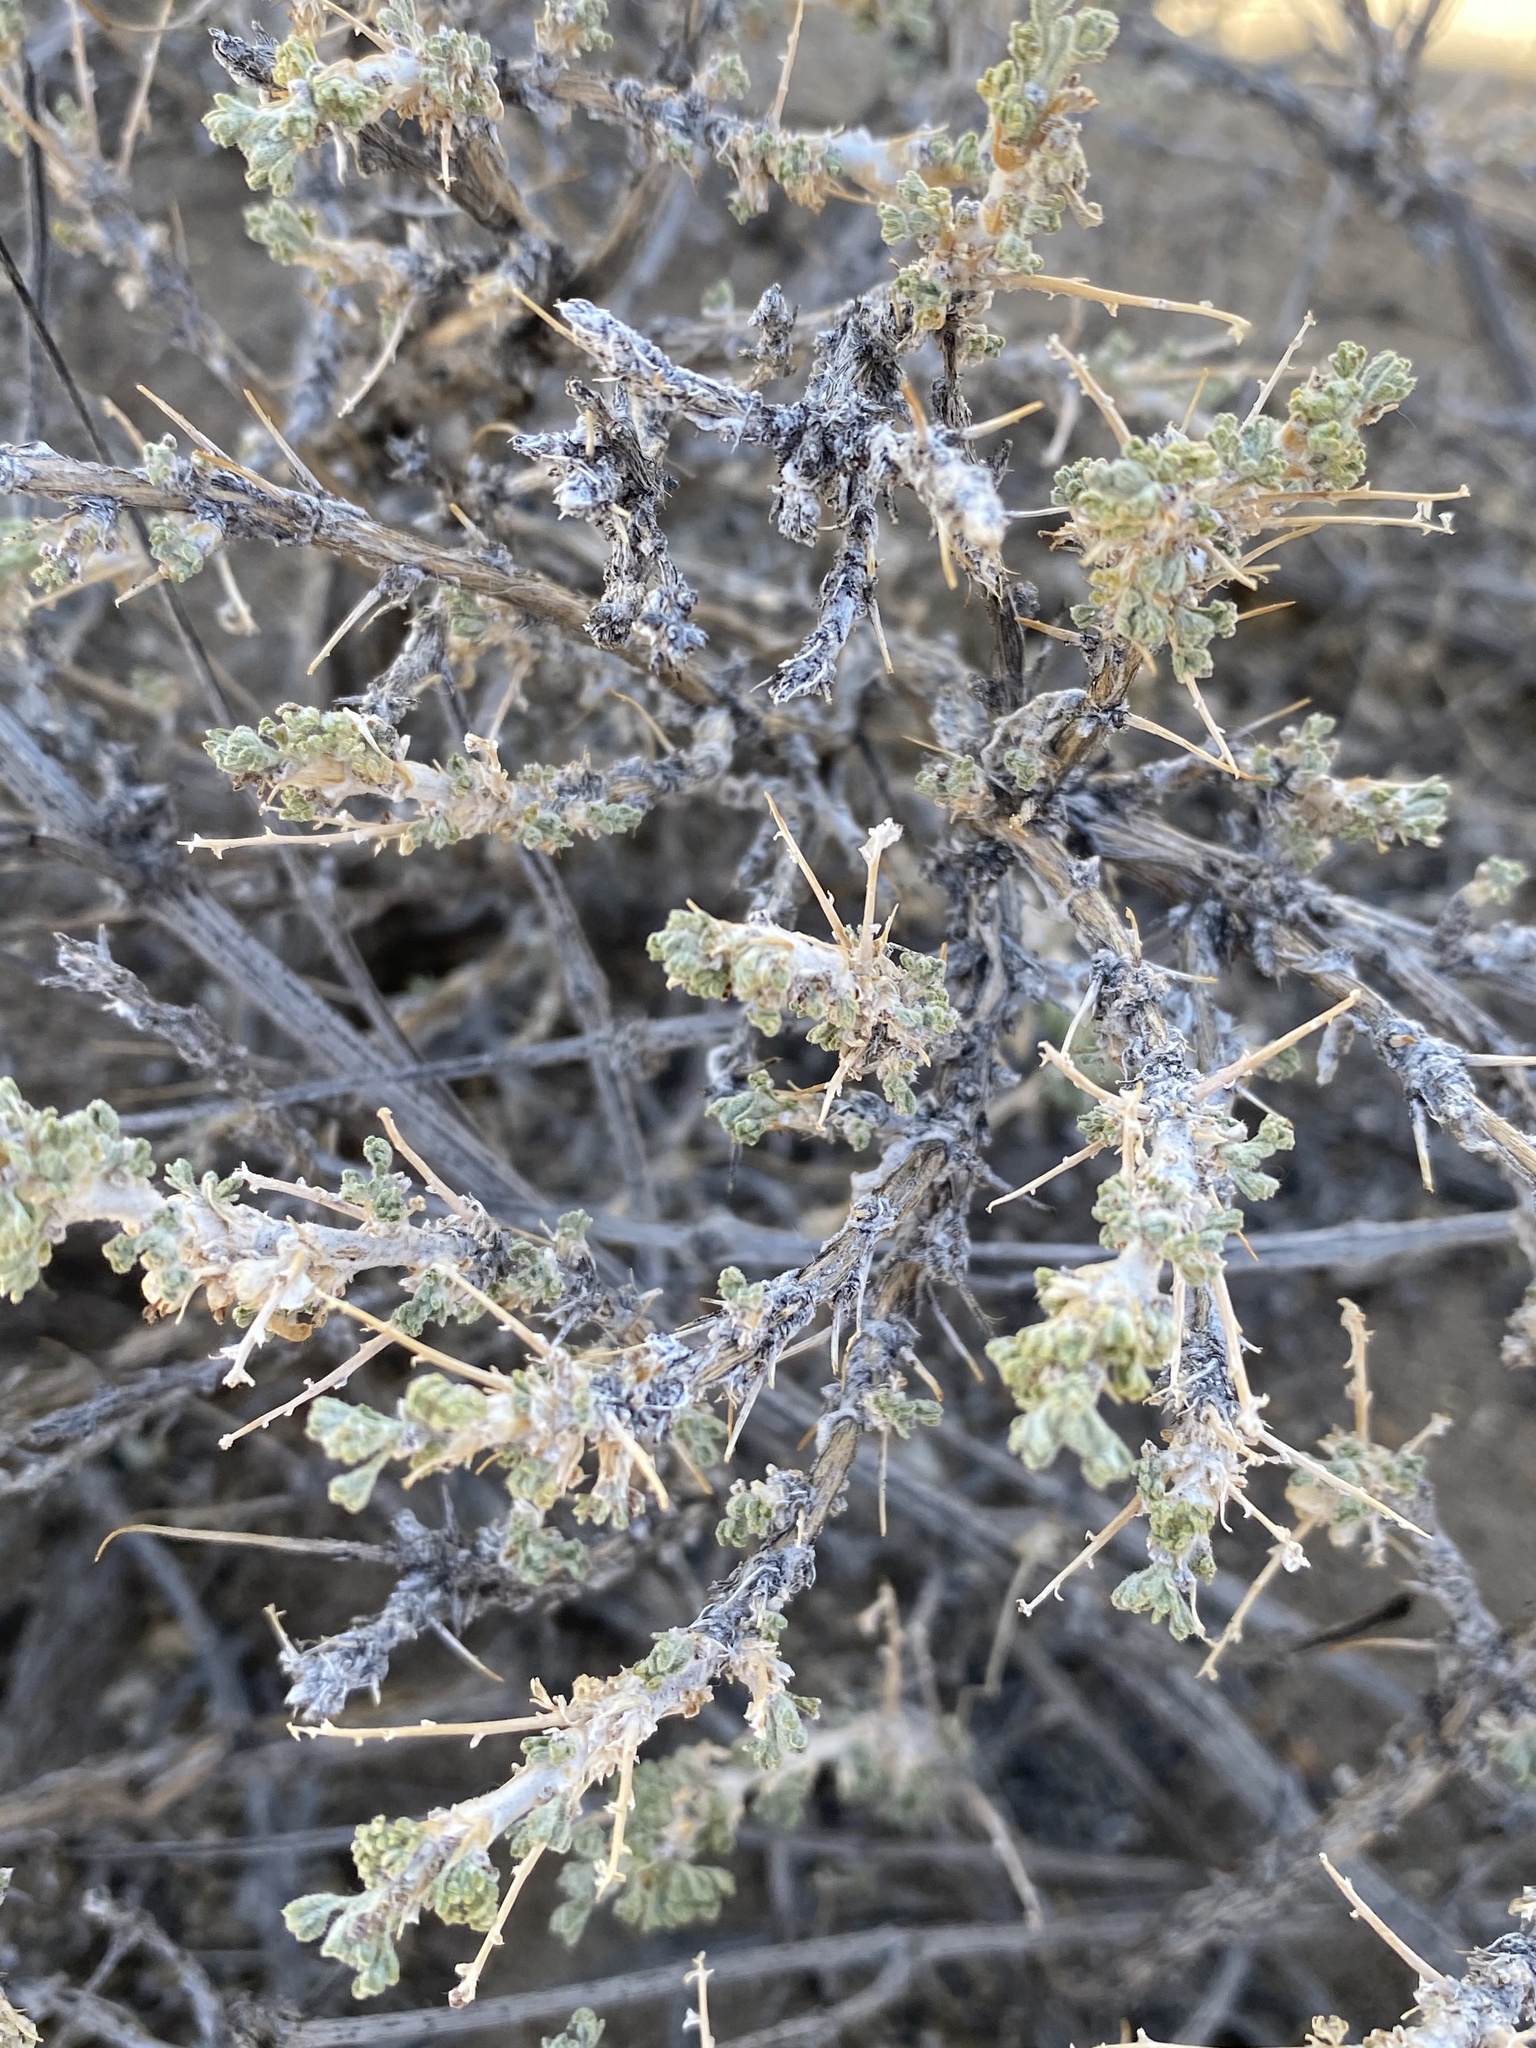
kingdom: Plantae
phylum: Tracheophyta
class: Magnoliopsida
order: Asterales
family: Asteraceae
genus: Artemisia
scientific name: Artemisia spinescens
